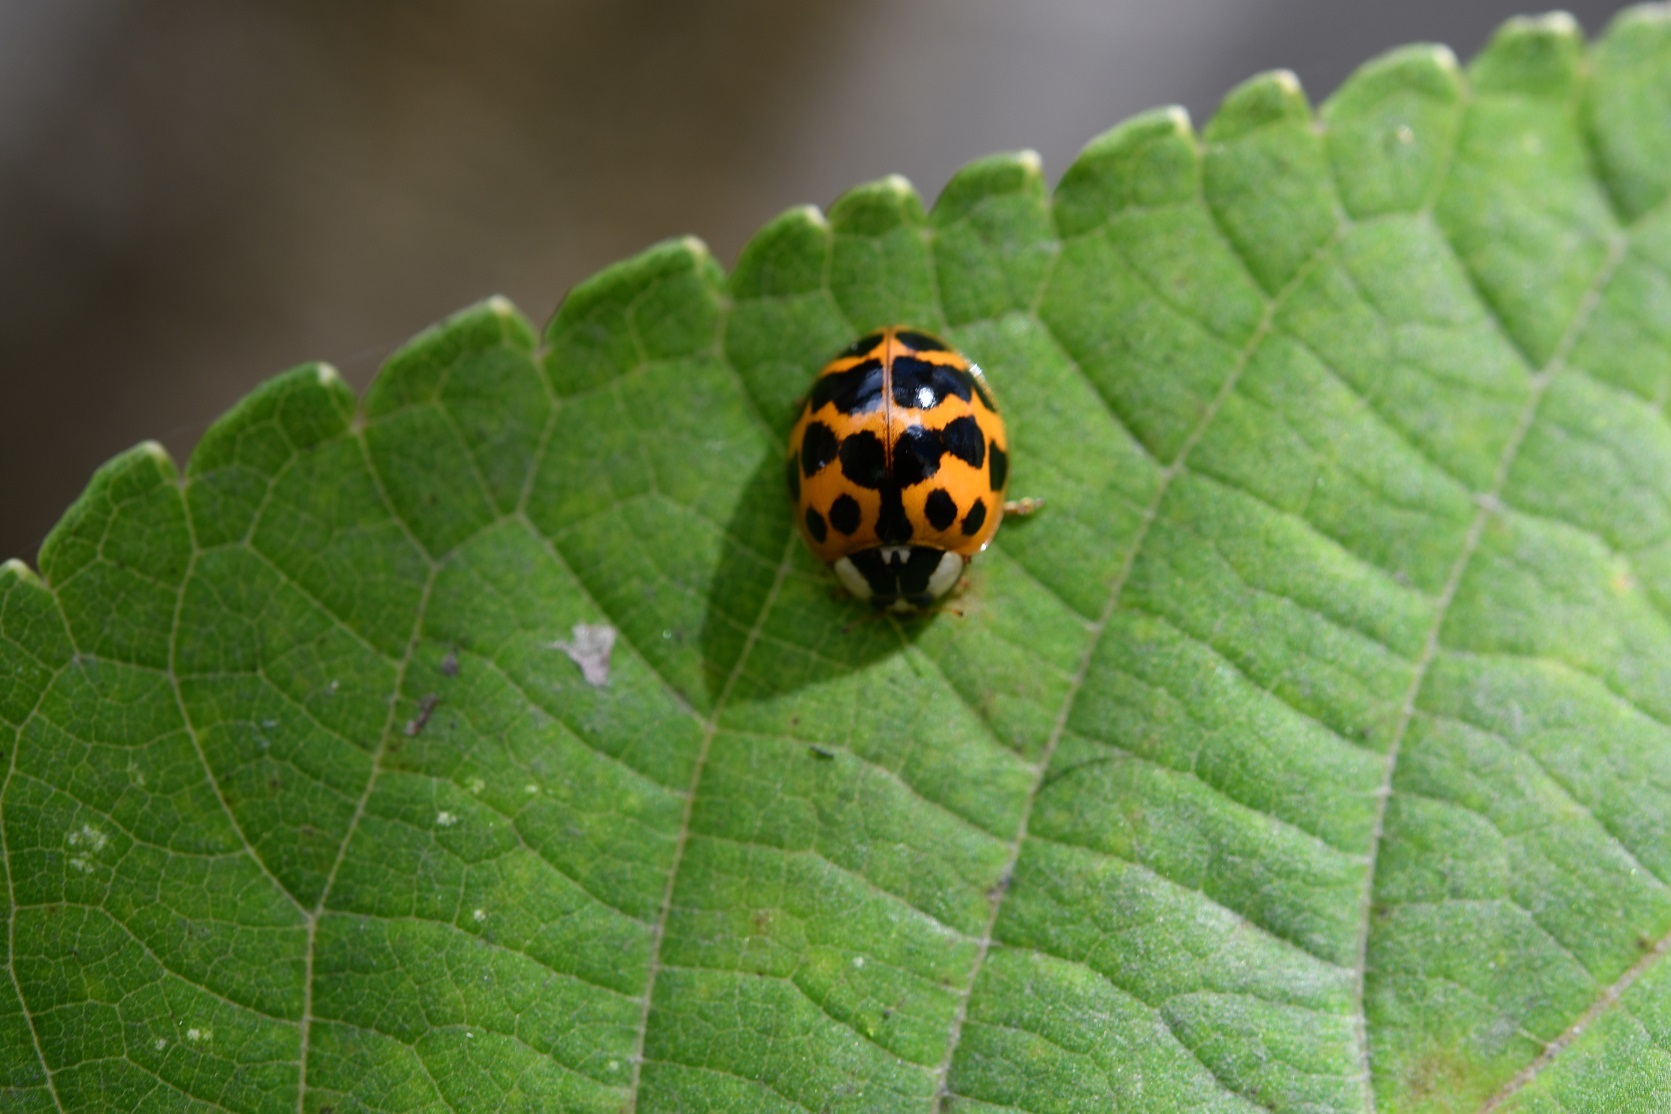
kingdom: Animalia
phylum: Arthropoda
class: Insecta
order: Coleoptera
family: Coccinellidae
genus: Harmonia
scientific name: Harmonia axyridis
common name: Harlequin ladybird
